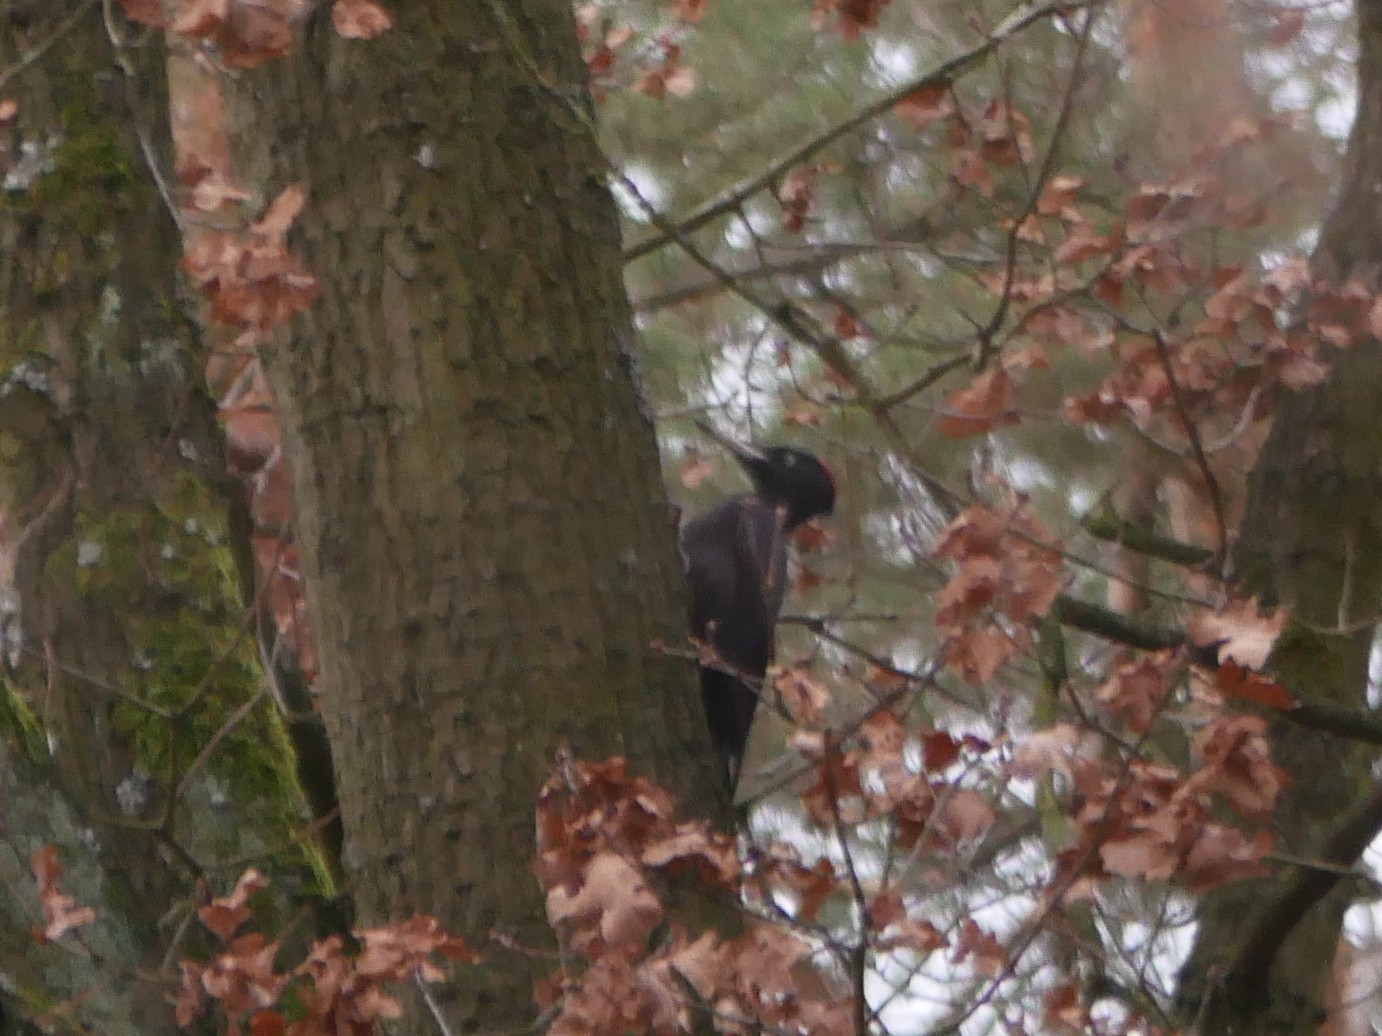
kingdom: Animalia
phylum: Chordata
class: Aves
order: Piciformes
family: Picidae
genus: Dryocopus
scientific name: Dryocopus martius
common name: Black woodpecker
